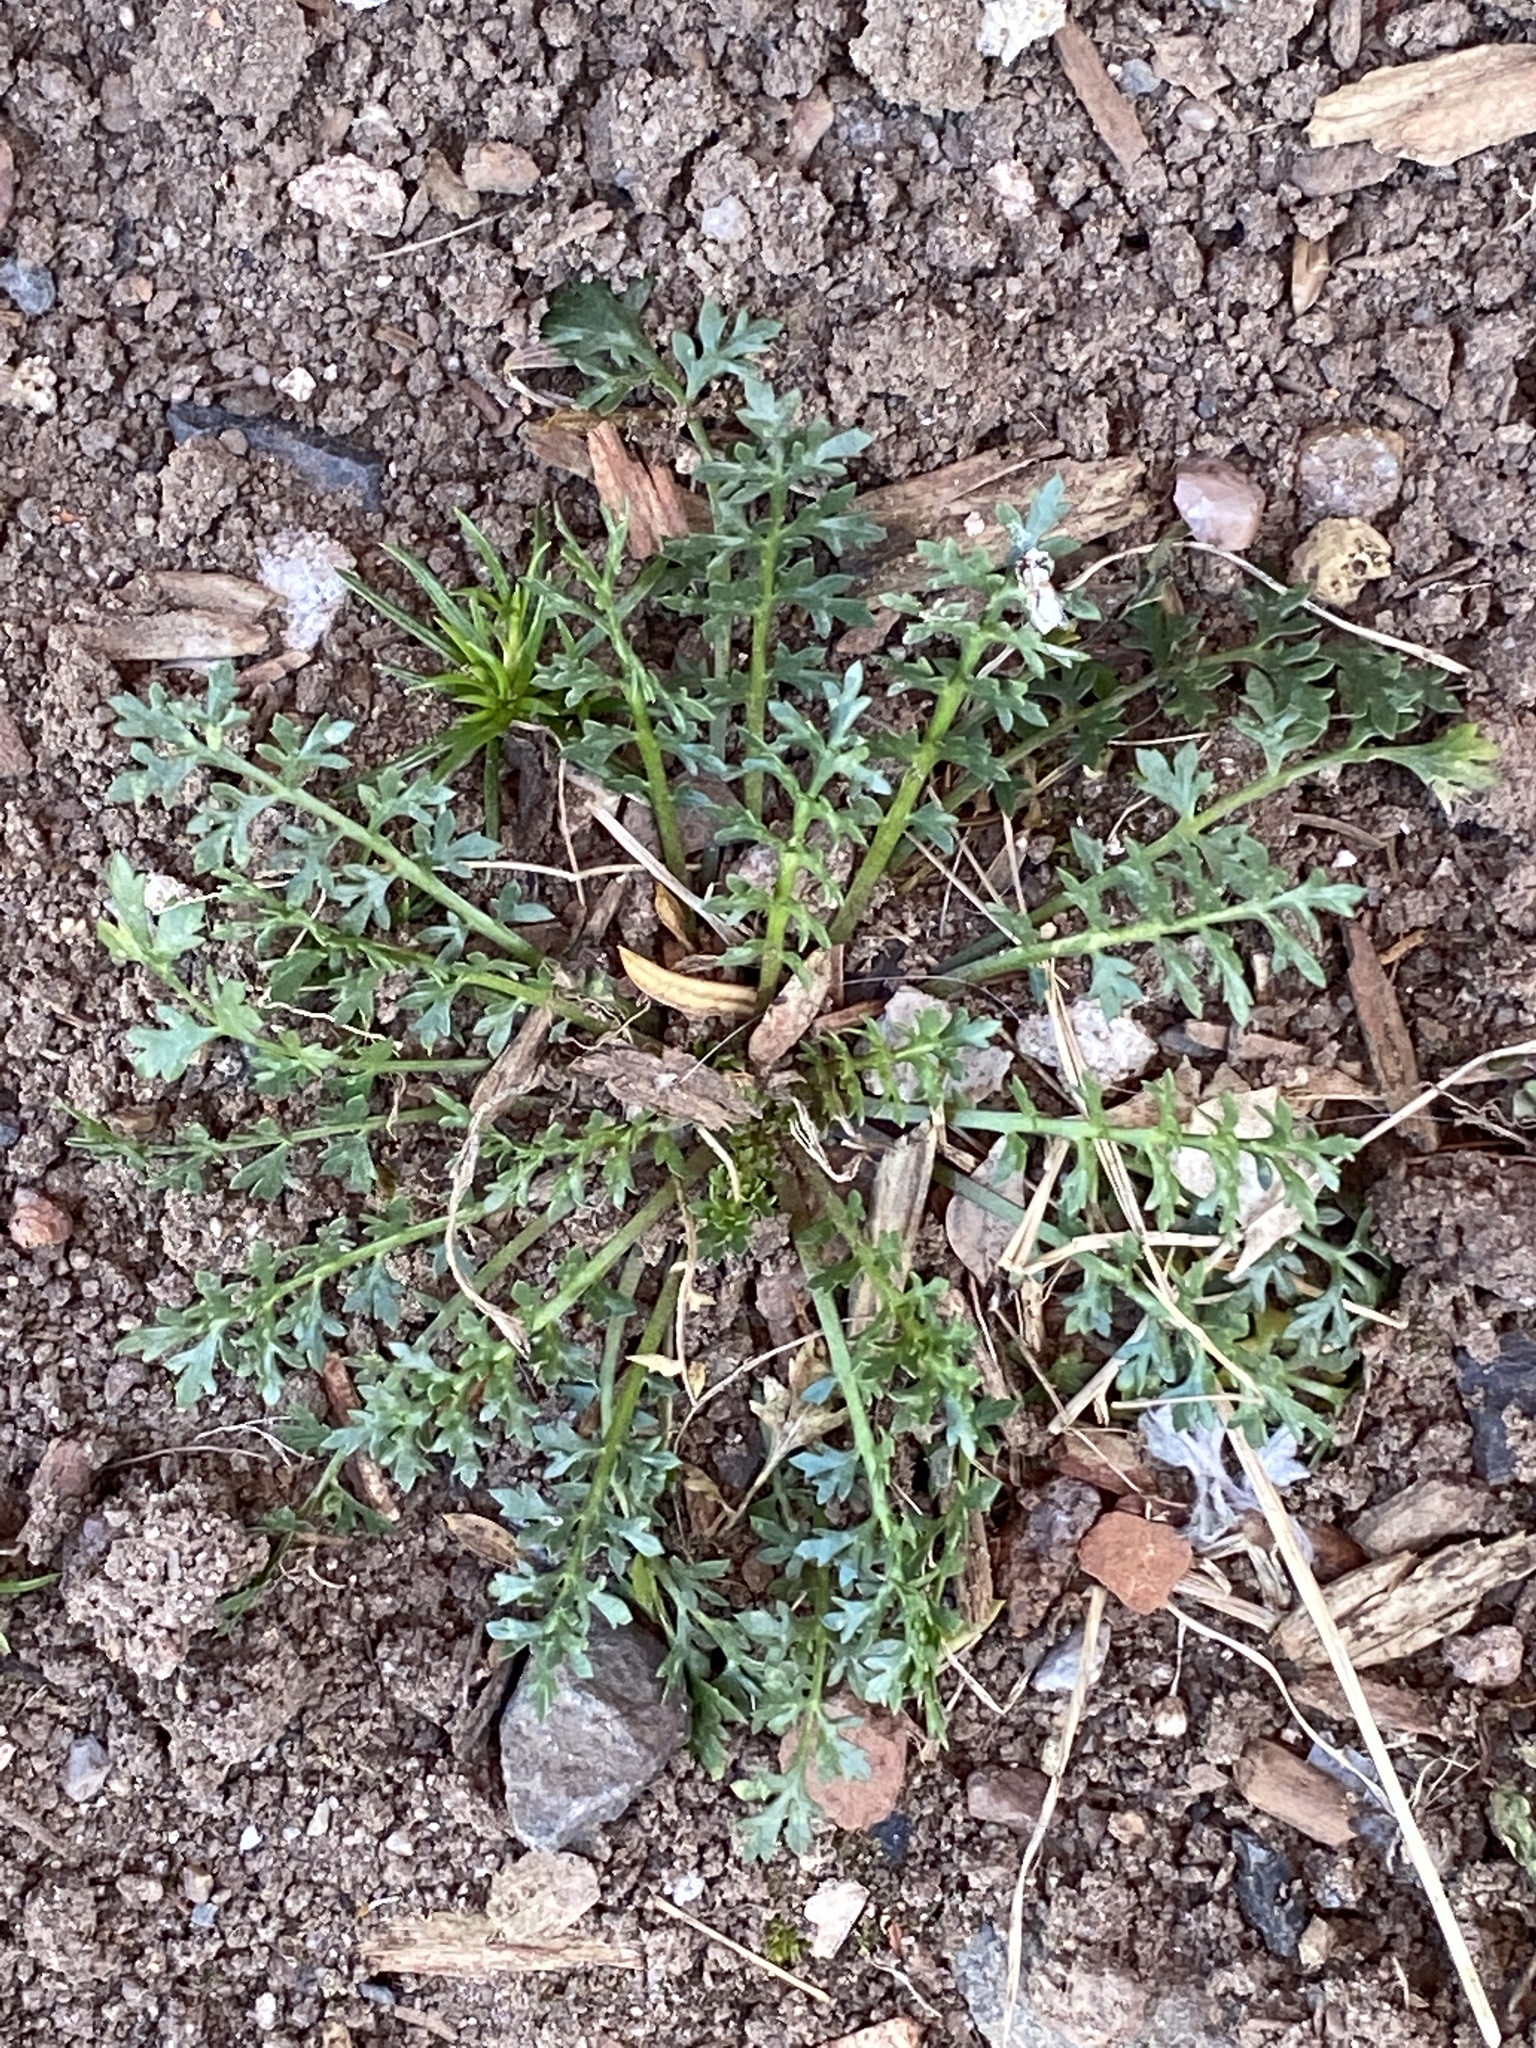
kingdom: Plantae
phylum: Tracheophyta
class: Magnoliopsida
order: Brassicales
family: Brassicaceae
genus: Lepidium
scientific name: Lepidium didymum
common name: Lesser swinecress
